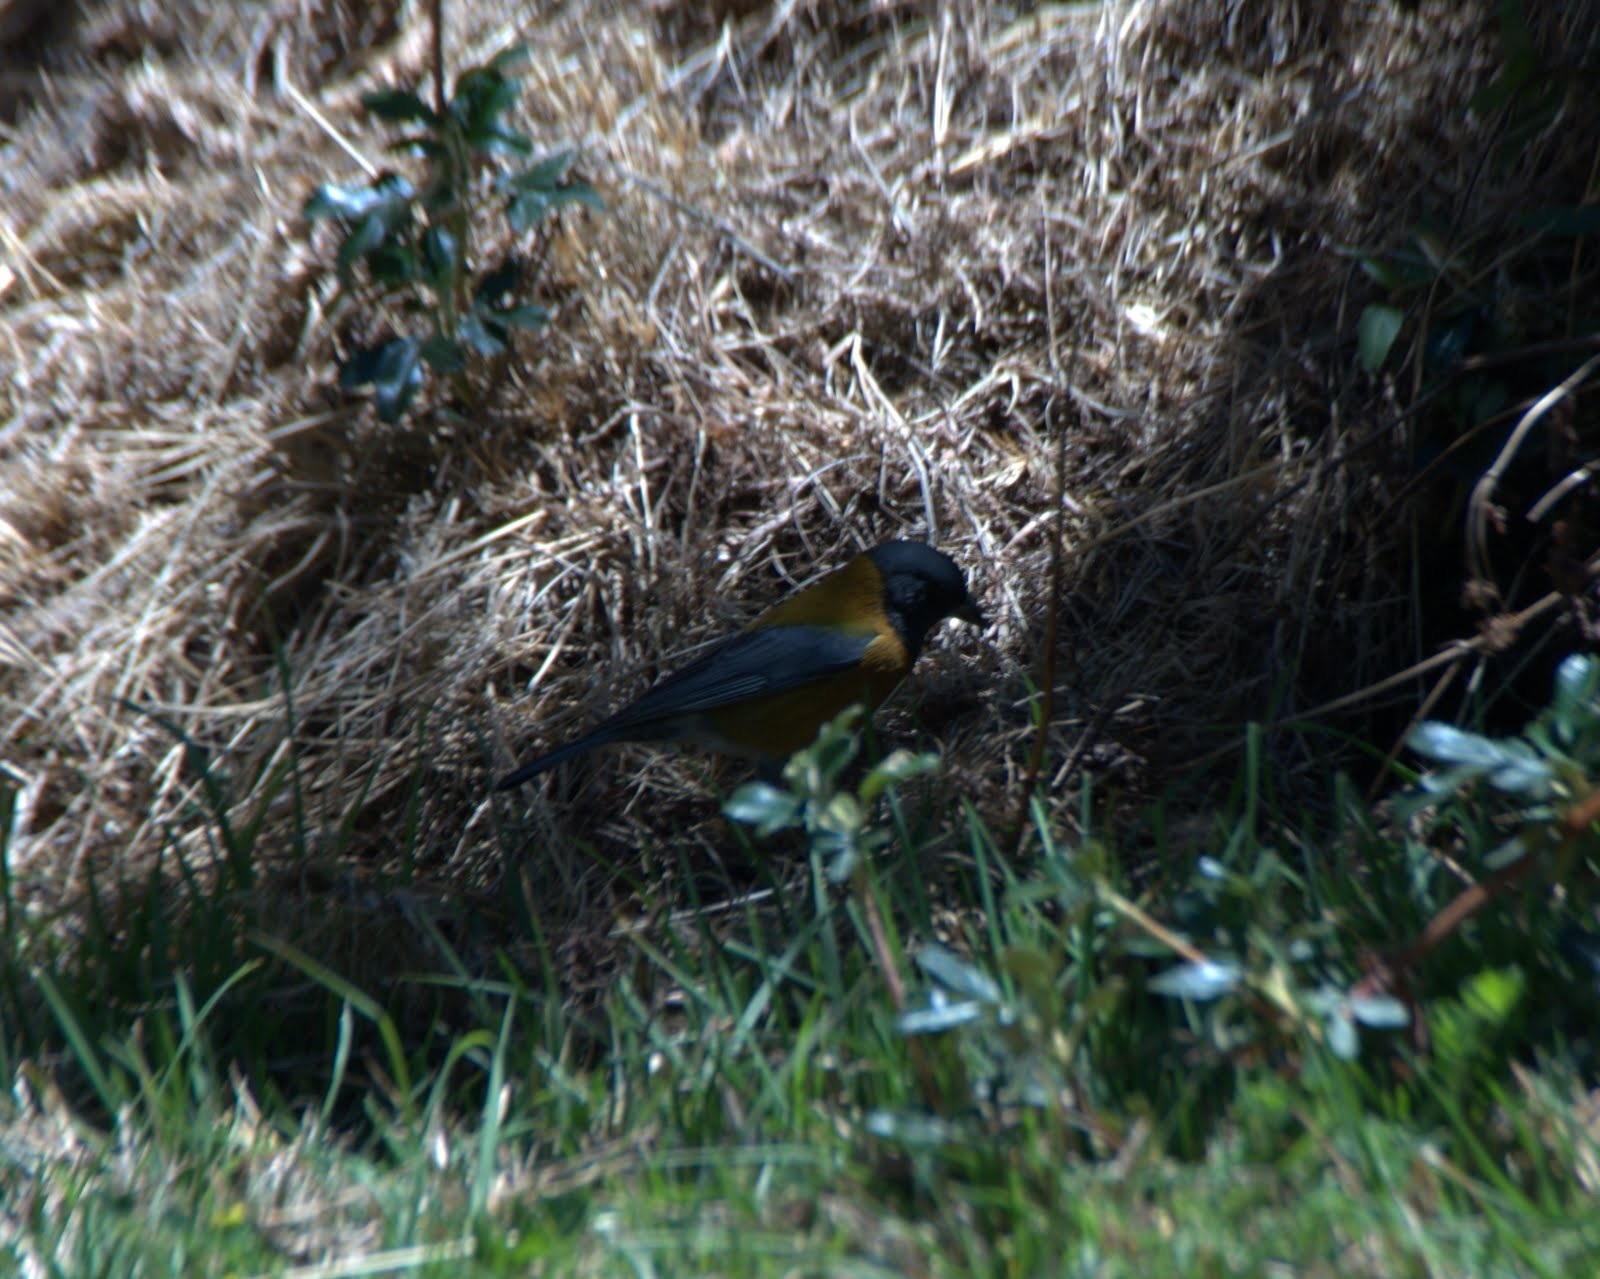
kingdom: Animalia
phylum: Chordata
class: Aves
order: Passeriformes
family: Thraupidae
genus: Phrygilus
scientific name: Phrygilus punensis
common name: Peruvian sierra finch
